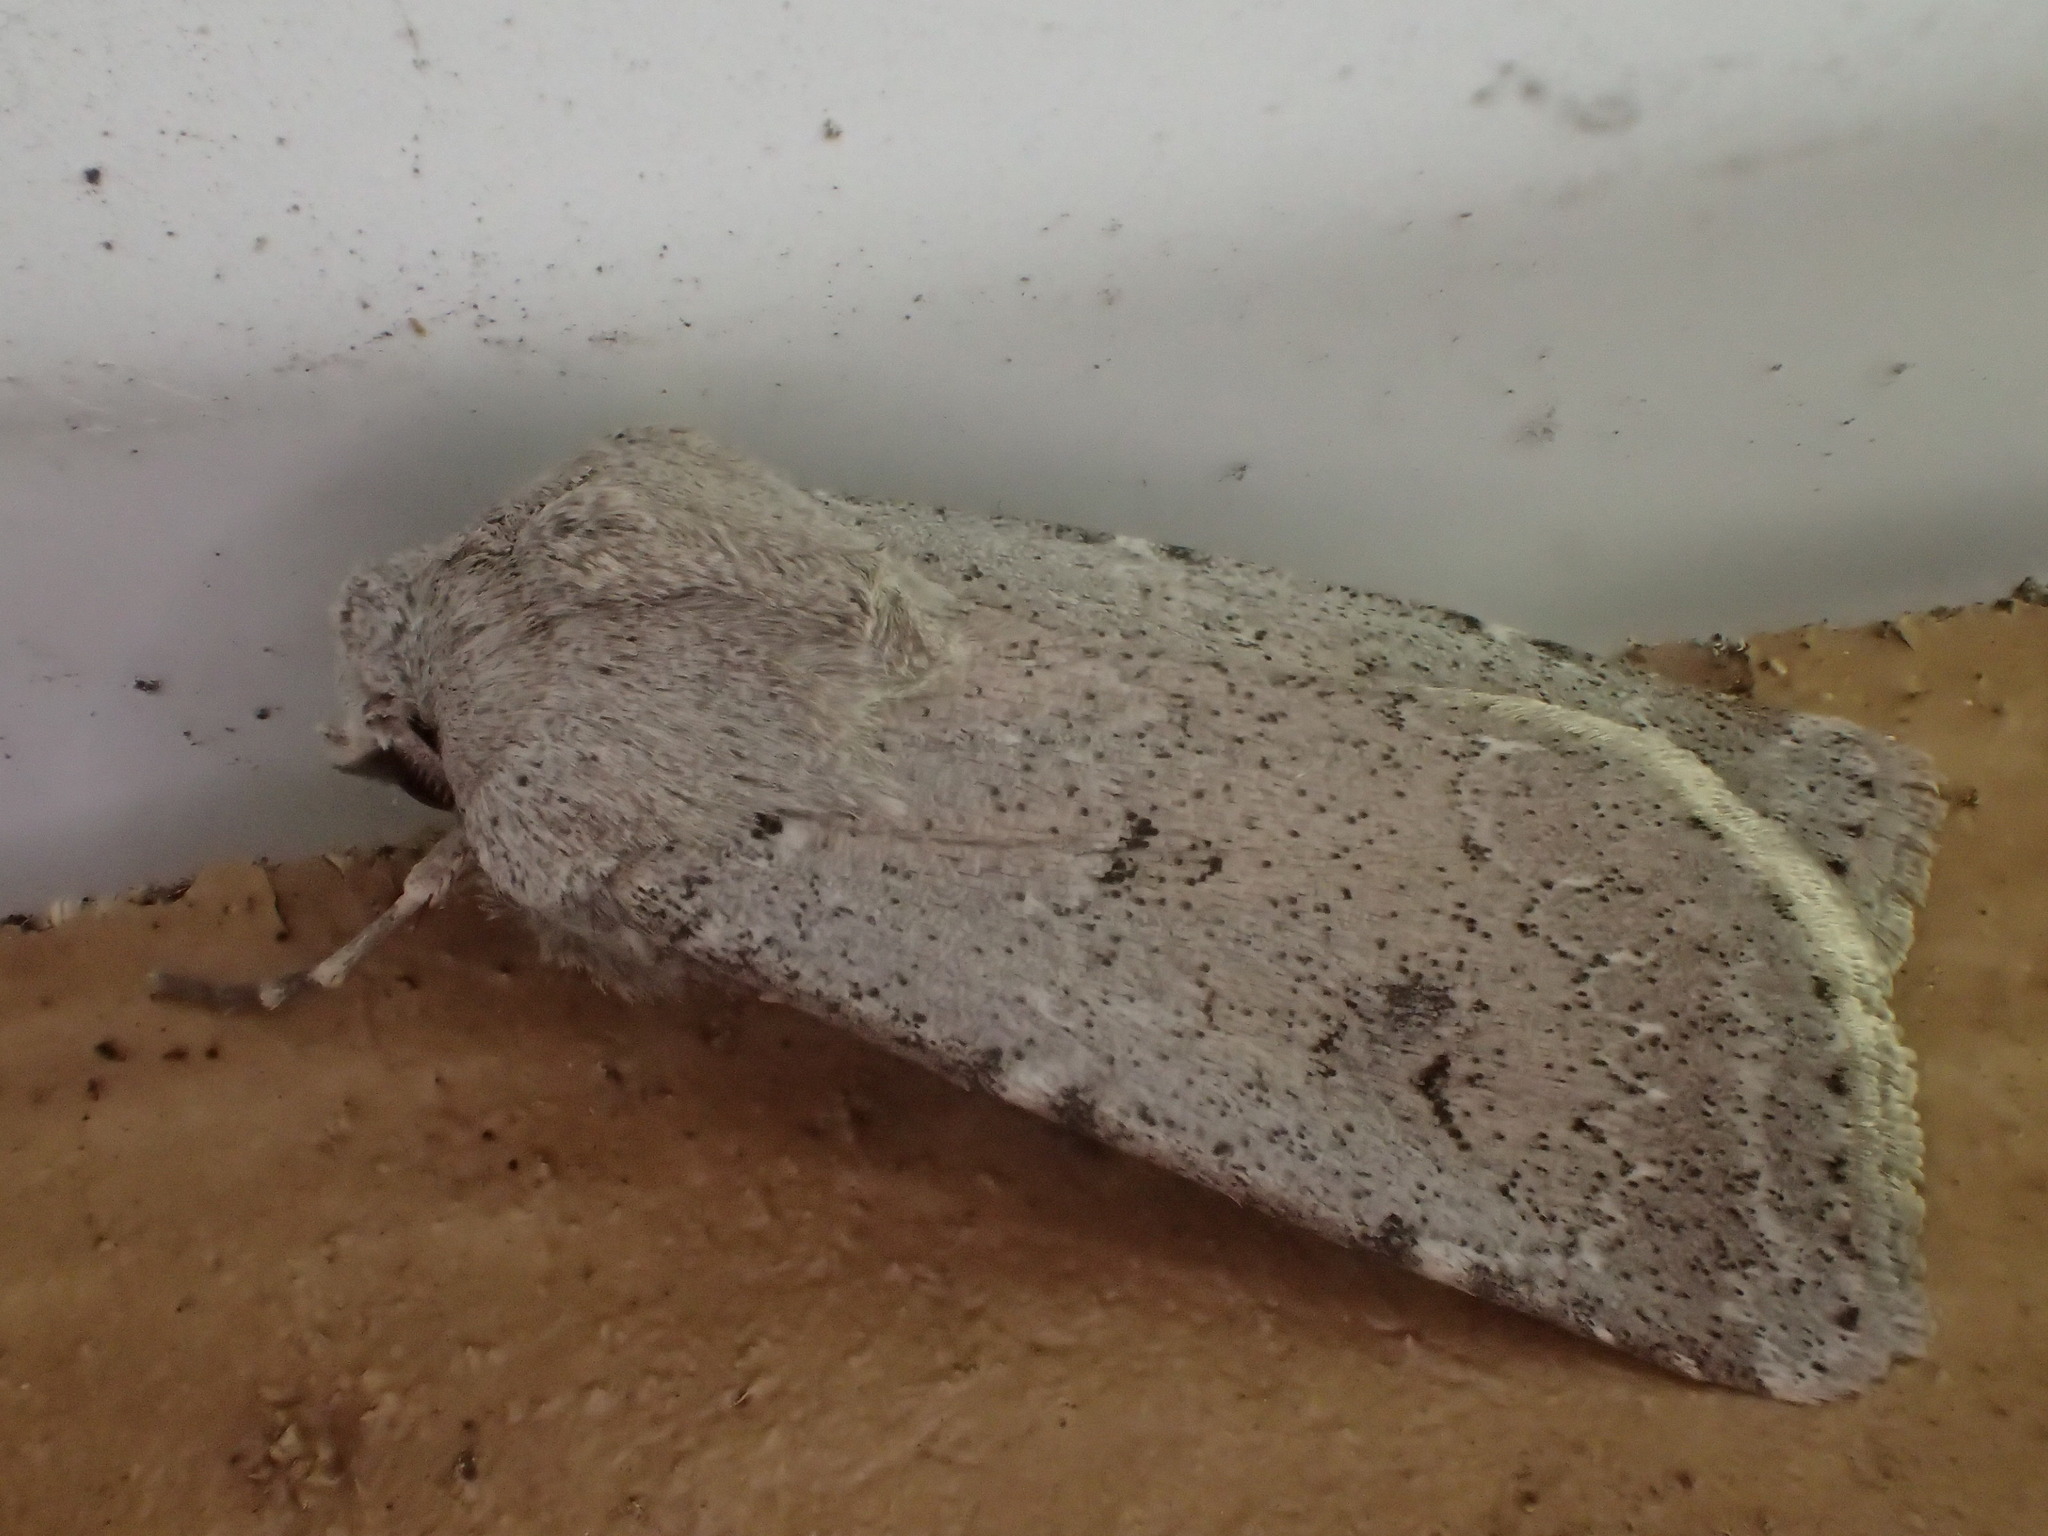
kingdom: Animalia
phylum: Arthropoda
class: Insecta
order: Lepidoptera
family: Noctuidae
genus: Agrotis
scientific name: Agrotis vetusta
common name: Old man dart
